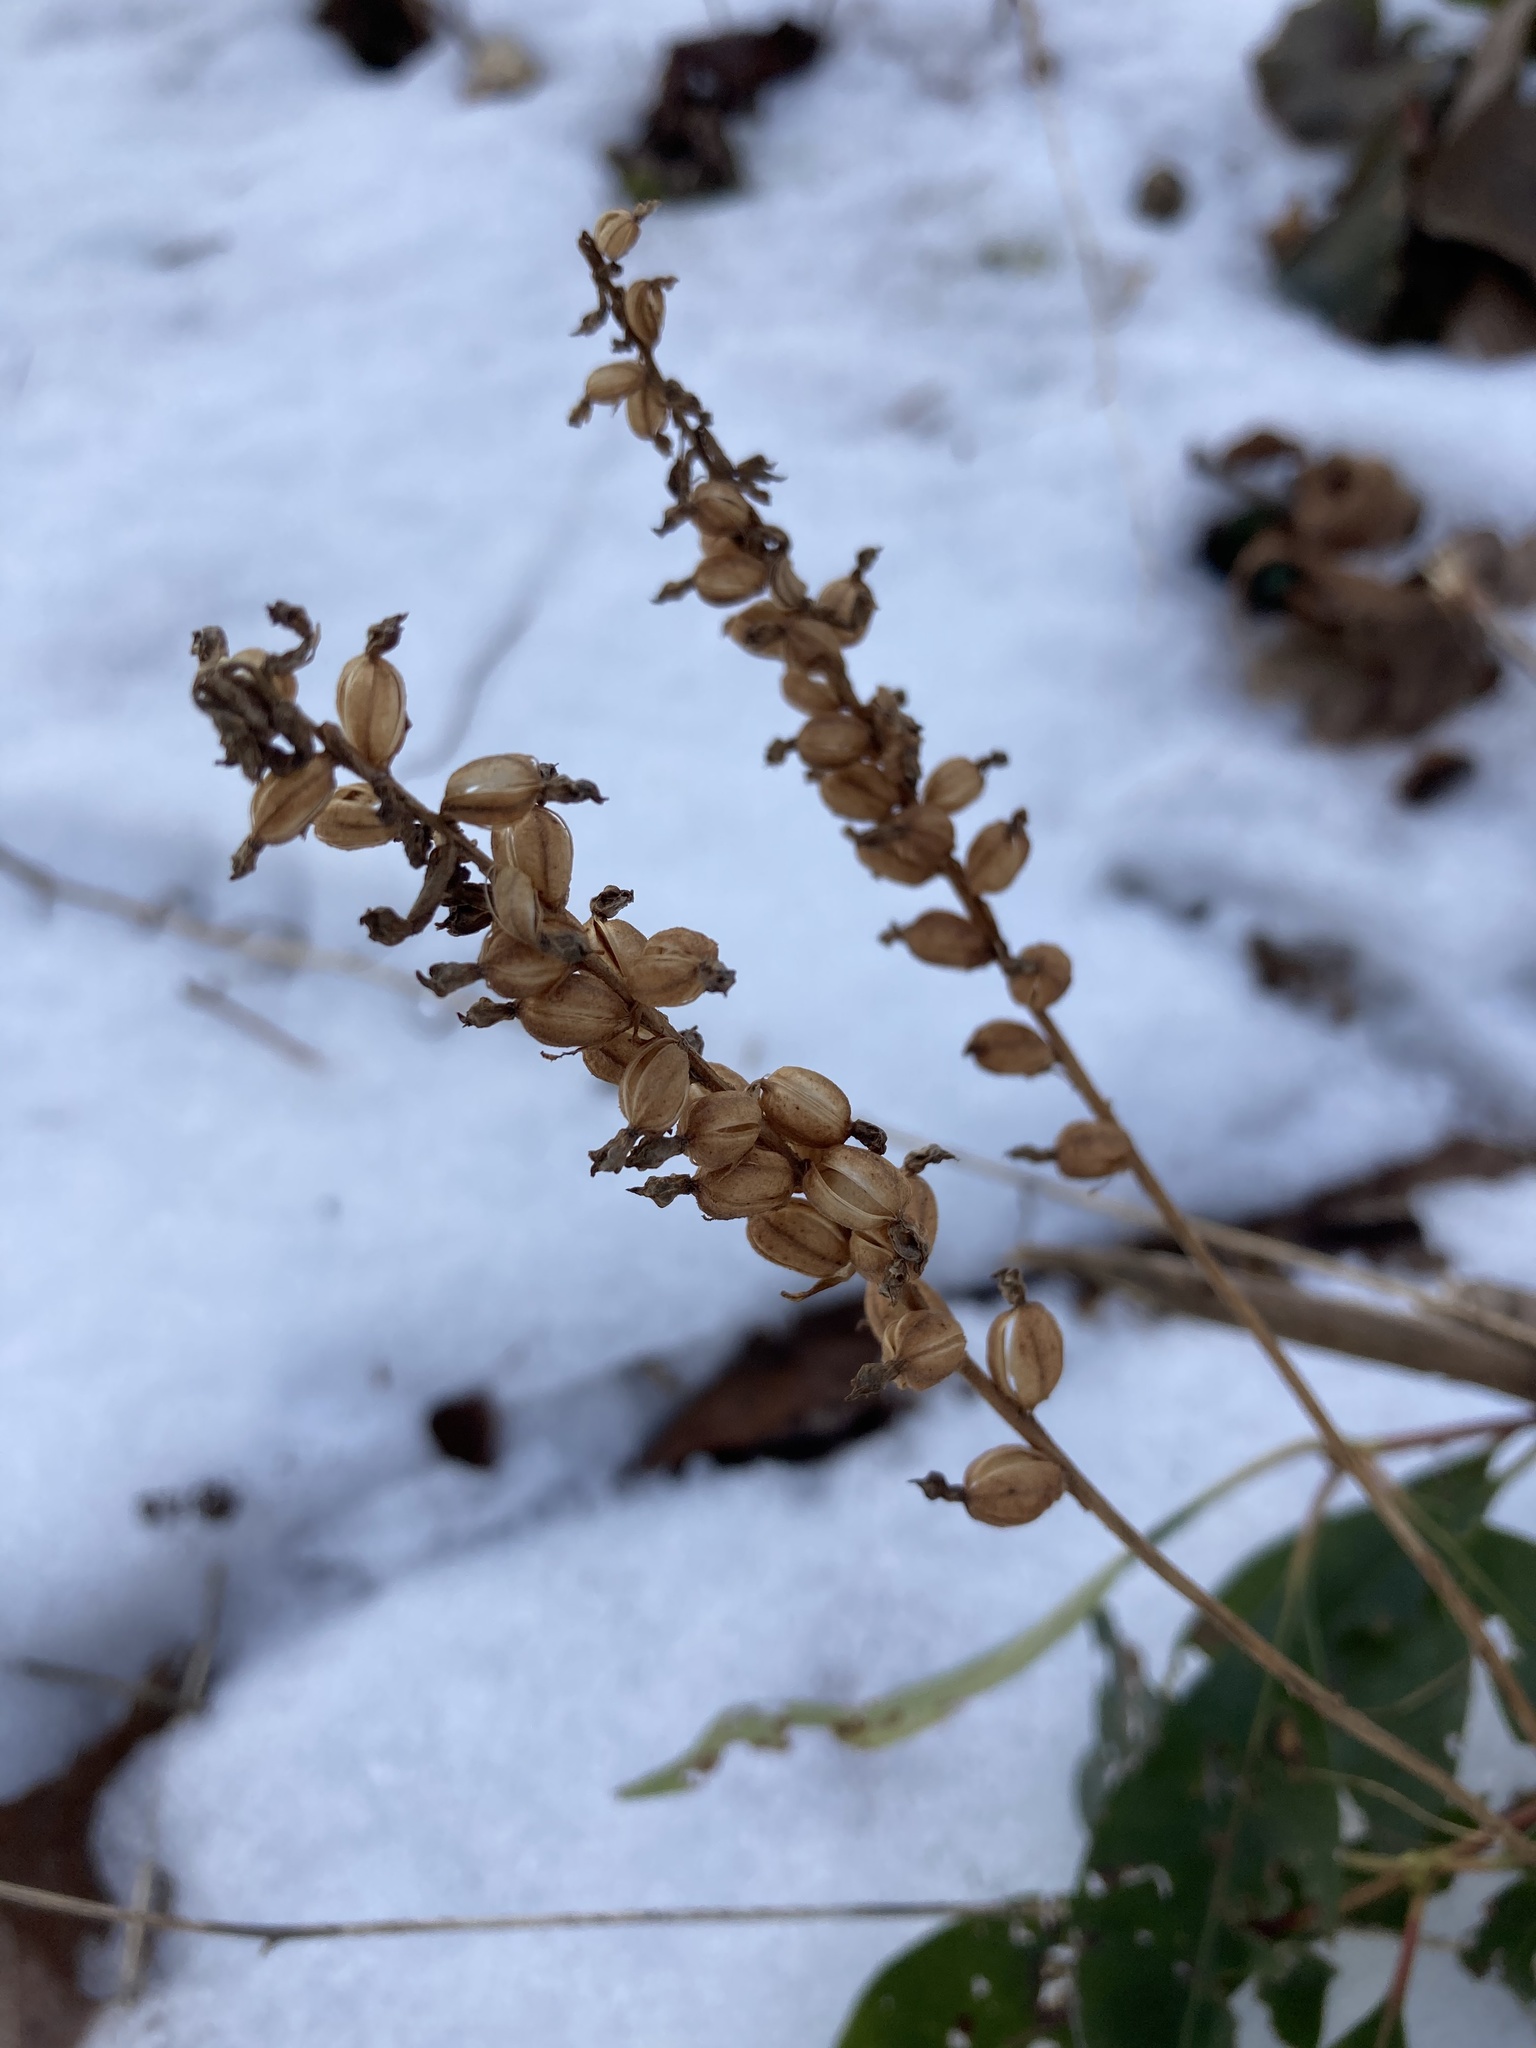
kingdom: Plantae
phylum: Tracheophyta
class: Liliopsida
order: Asparagales
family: Orchidaceae
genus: Goodyera
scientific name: Goodyera pubescens
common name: Downy rattlesnake-plantain
